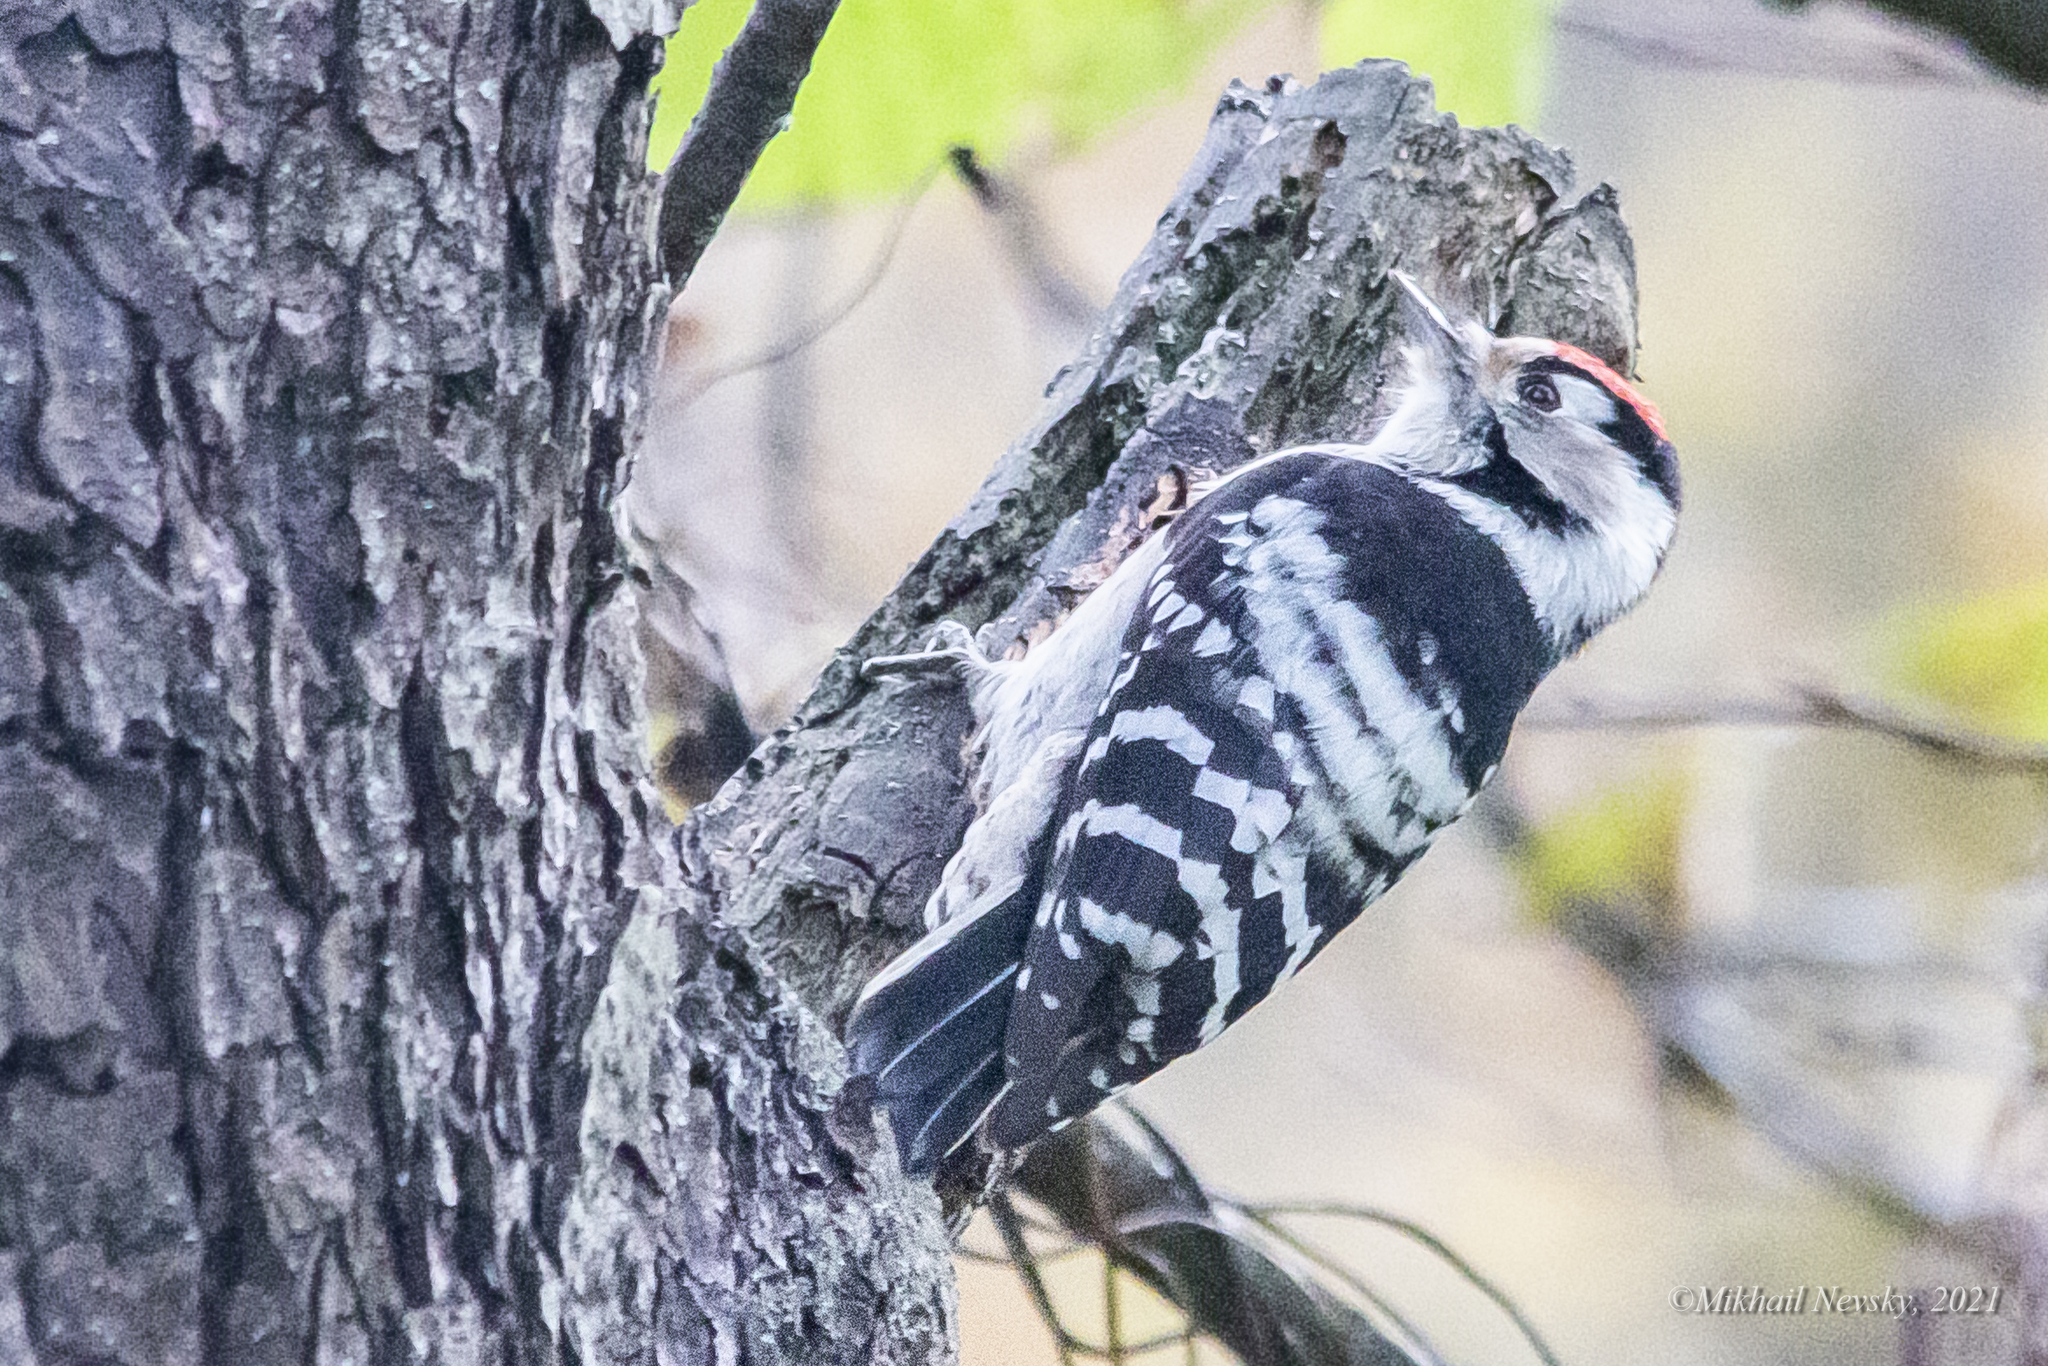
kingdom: Animalia
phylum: Chordata
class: Aves
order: Piciformes
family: Picidae
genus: Dryobates
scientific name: Dryobates minor
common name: Lesser spotted woodpecker
